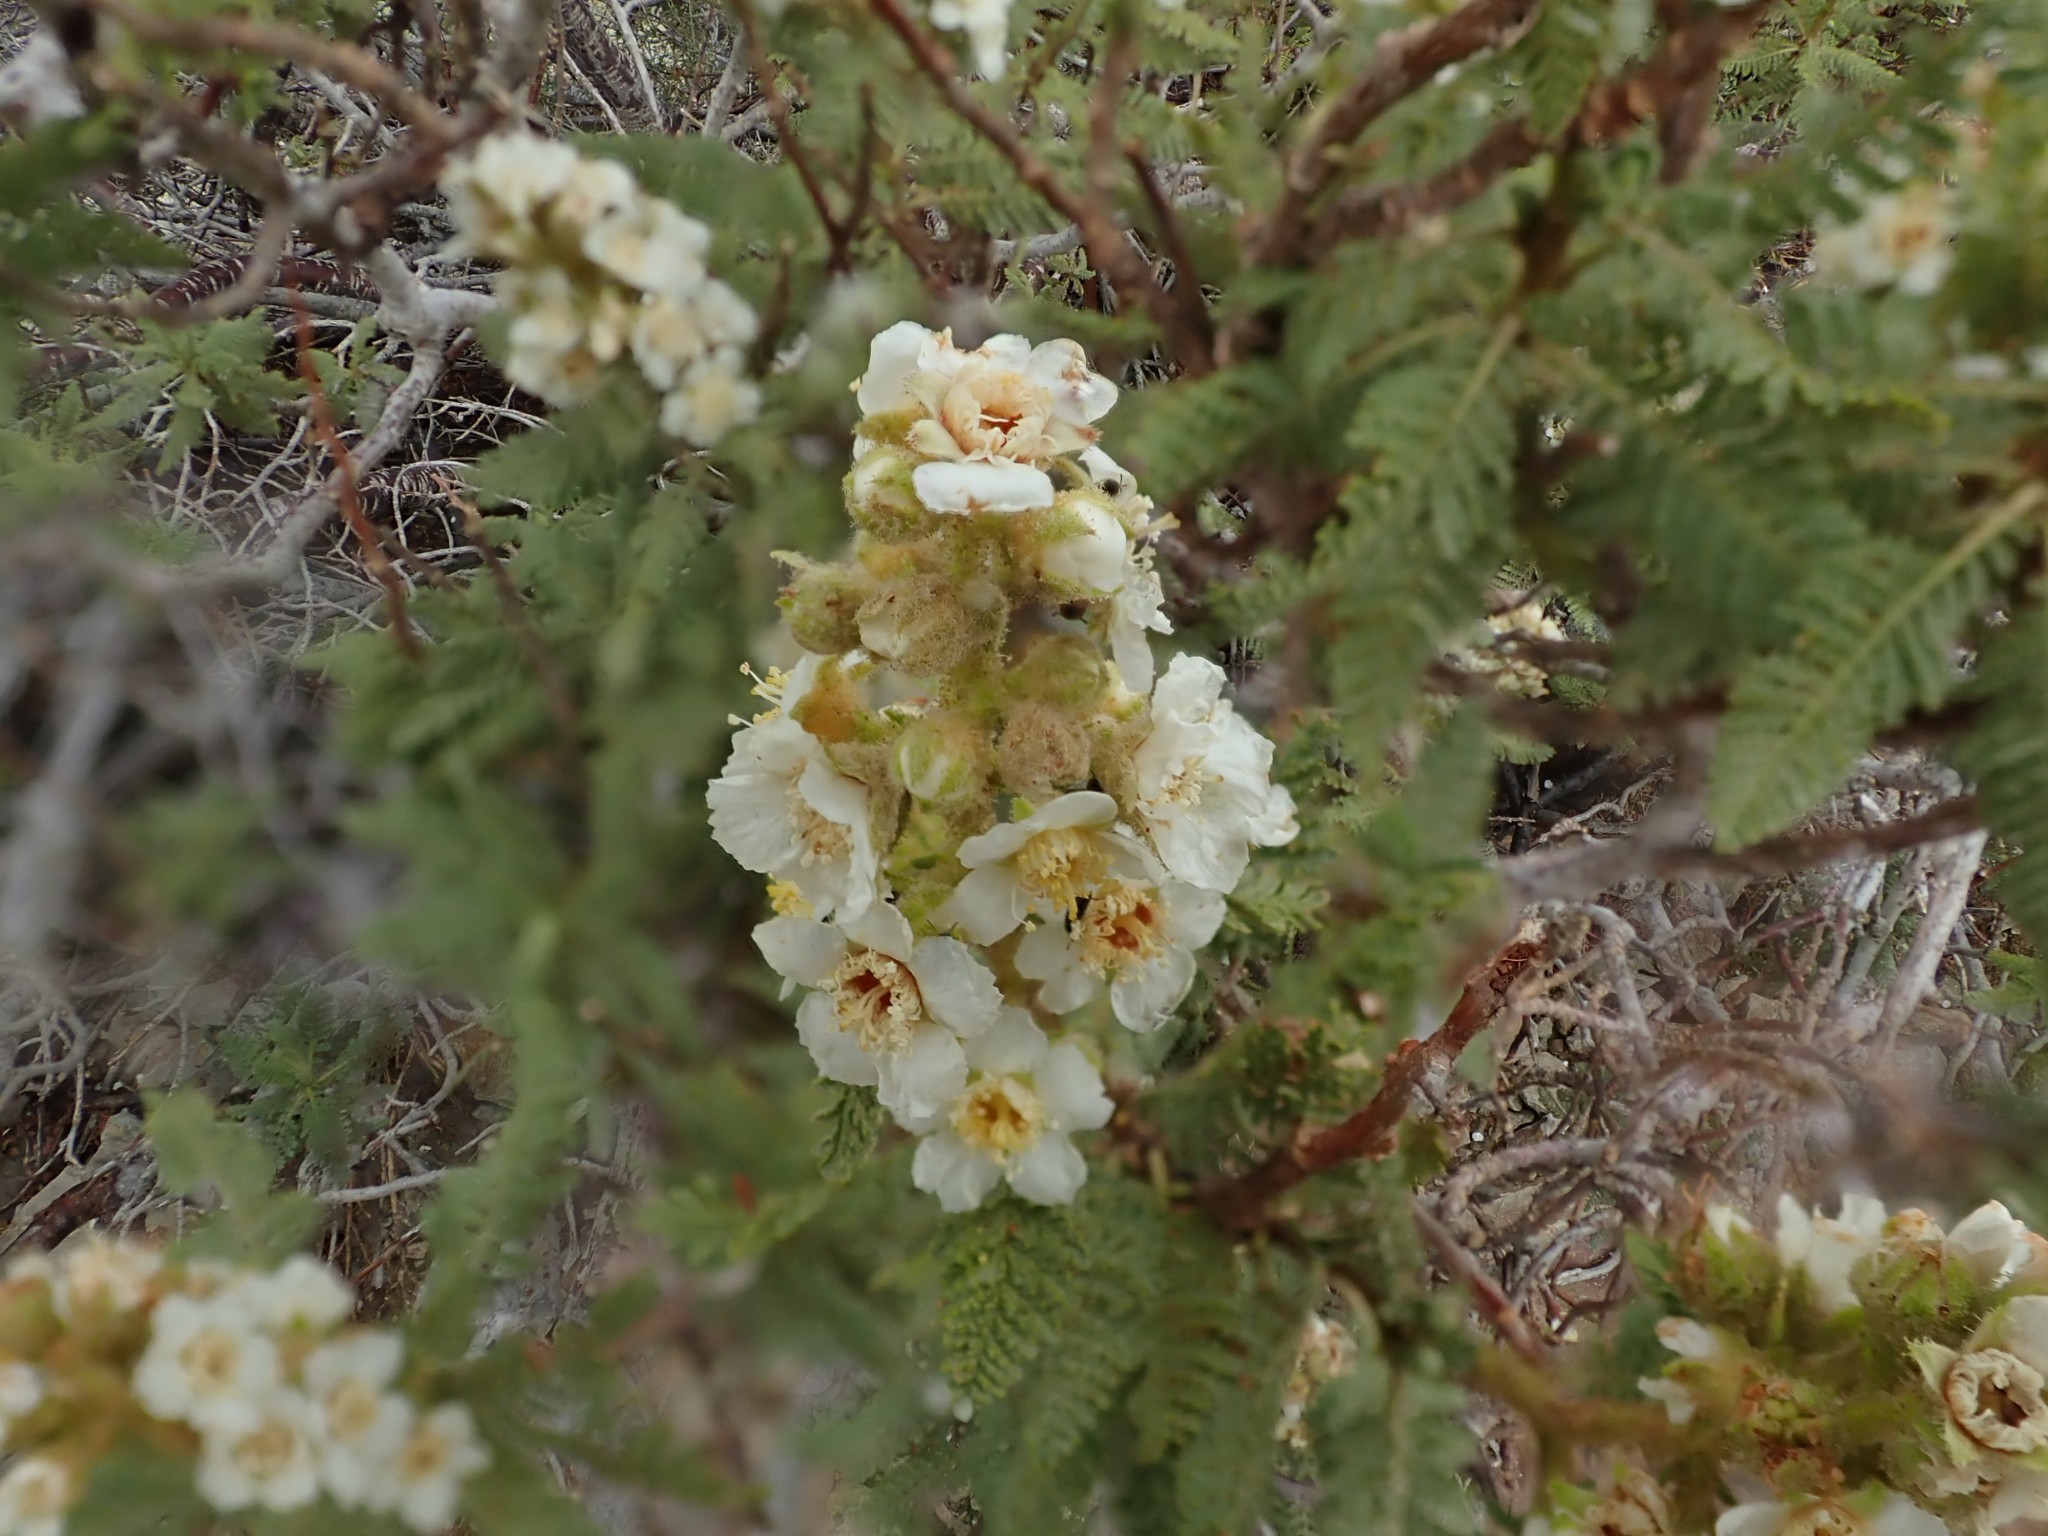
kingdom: Plantae
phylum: Tracheophyta
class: Magnoliopsida
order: Rosales
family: Rosaceae
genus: Chamaebatiaria
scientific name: Chamaebatiaria millefolium
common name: Fernbush
